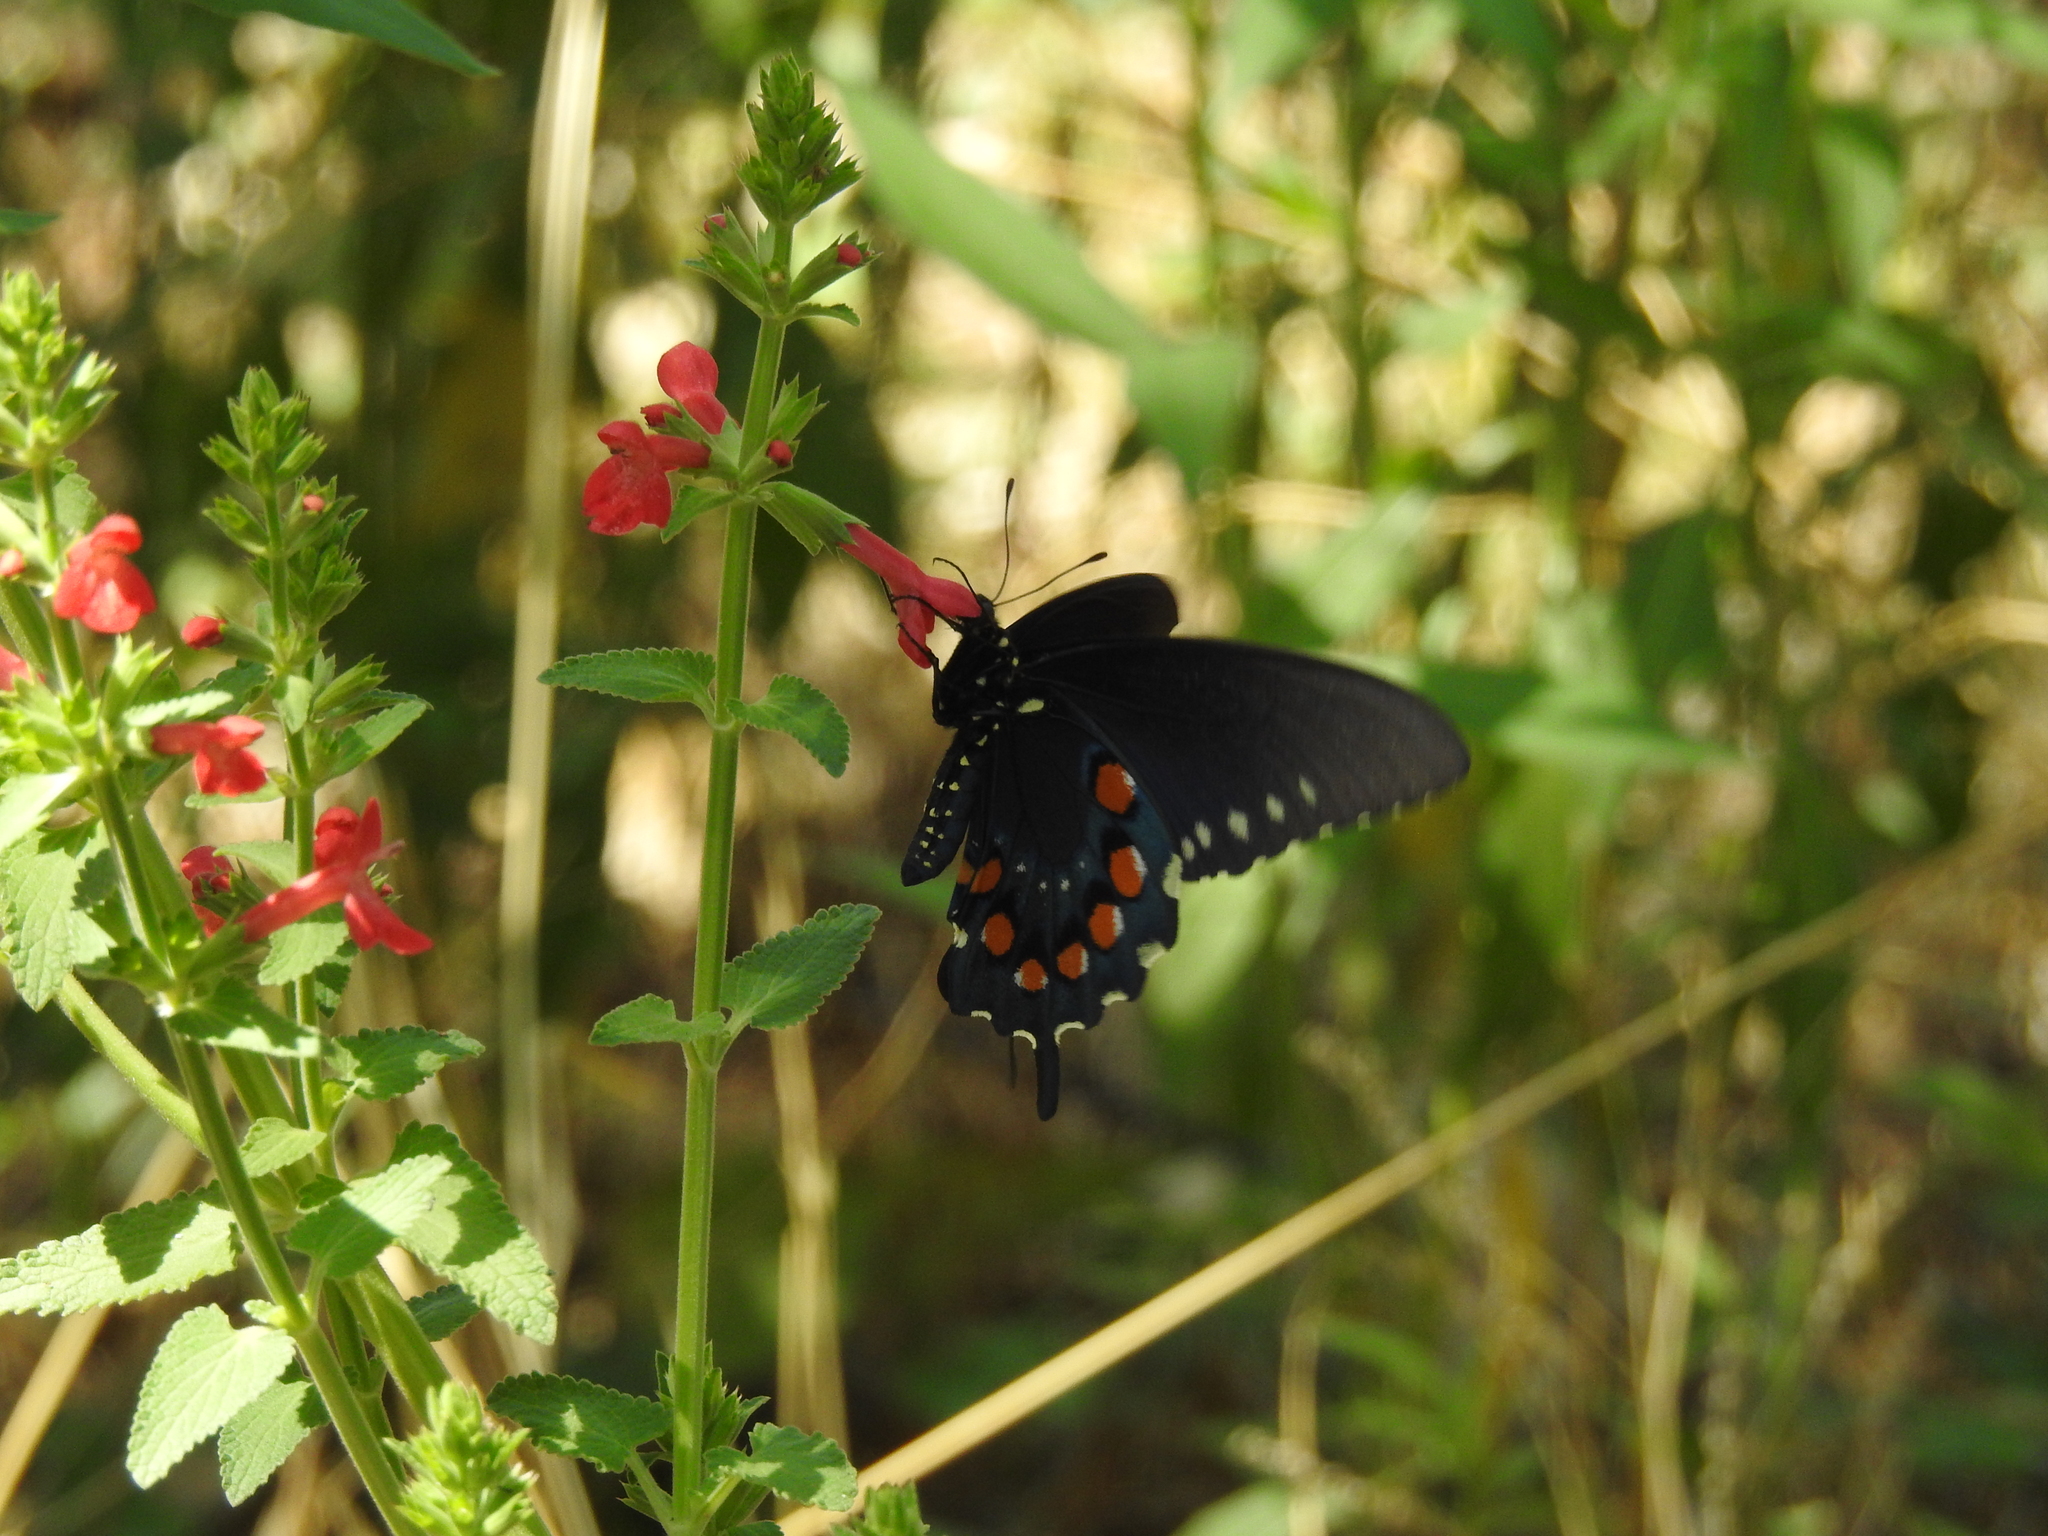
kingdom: Animalia
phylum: Arthropoda
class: Insecta
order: Lepidoptera
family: Papilionidae
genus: Battus
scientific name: Battus philenor
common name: Pipevine swallowtail
